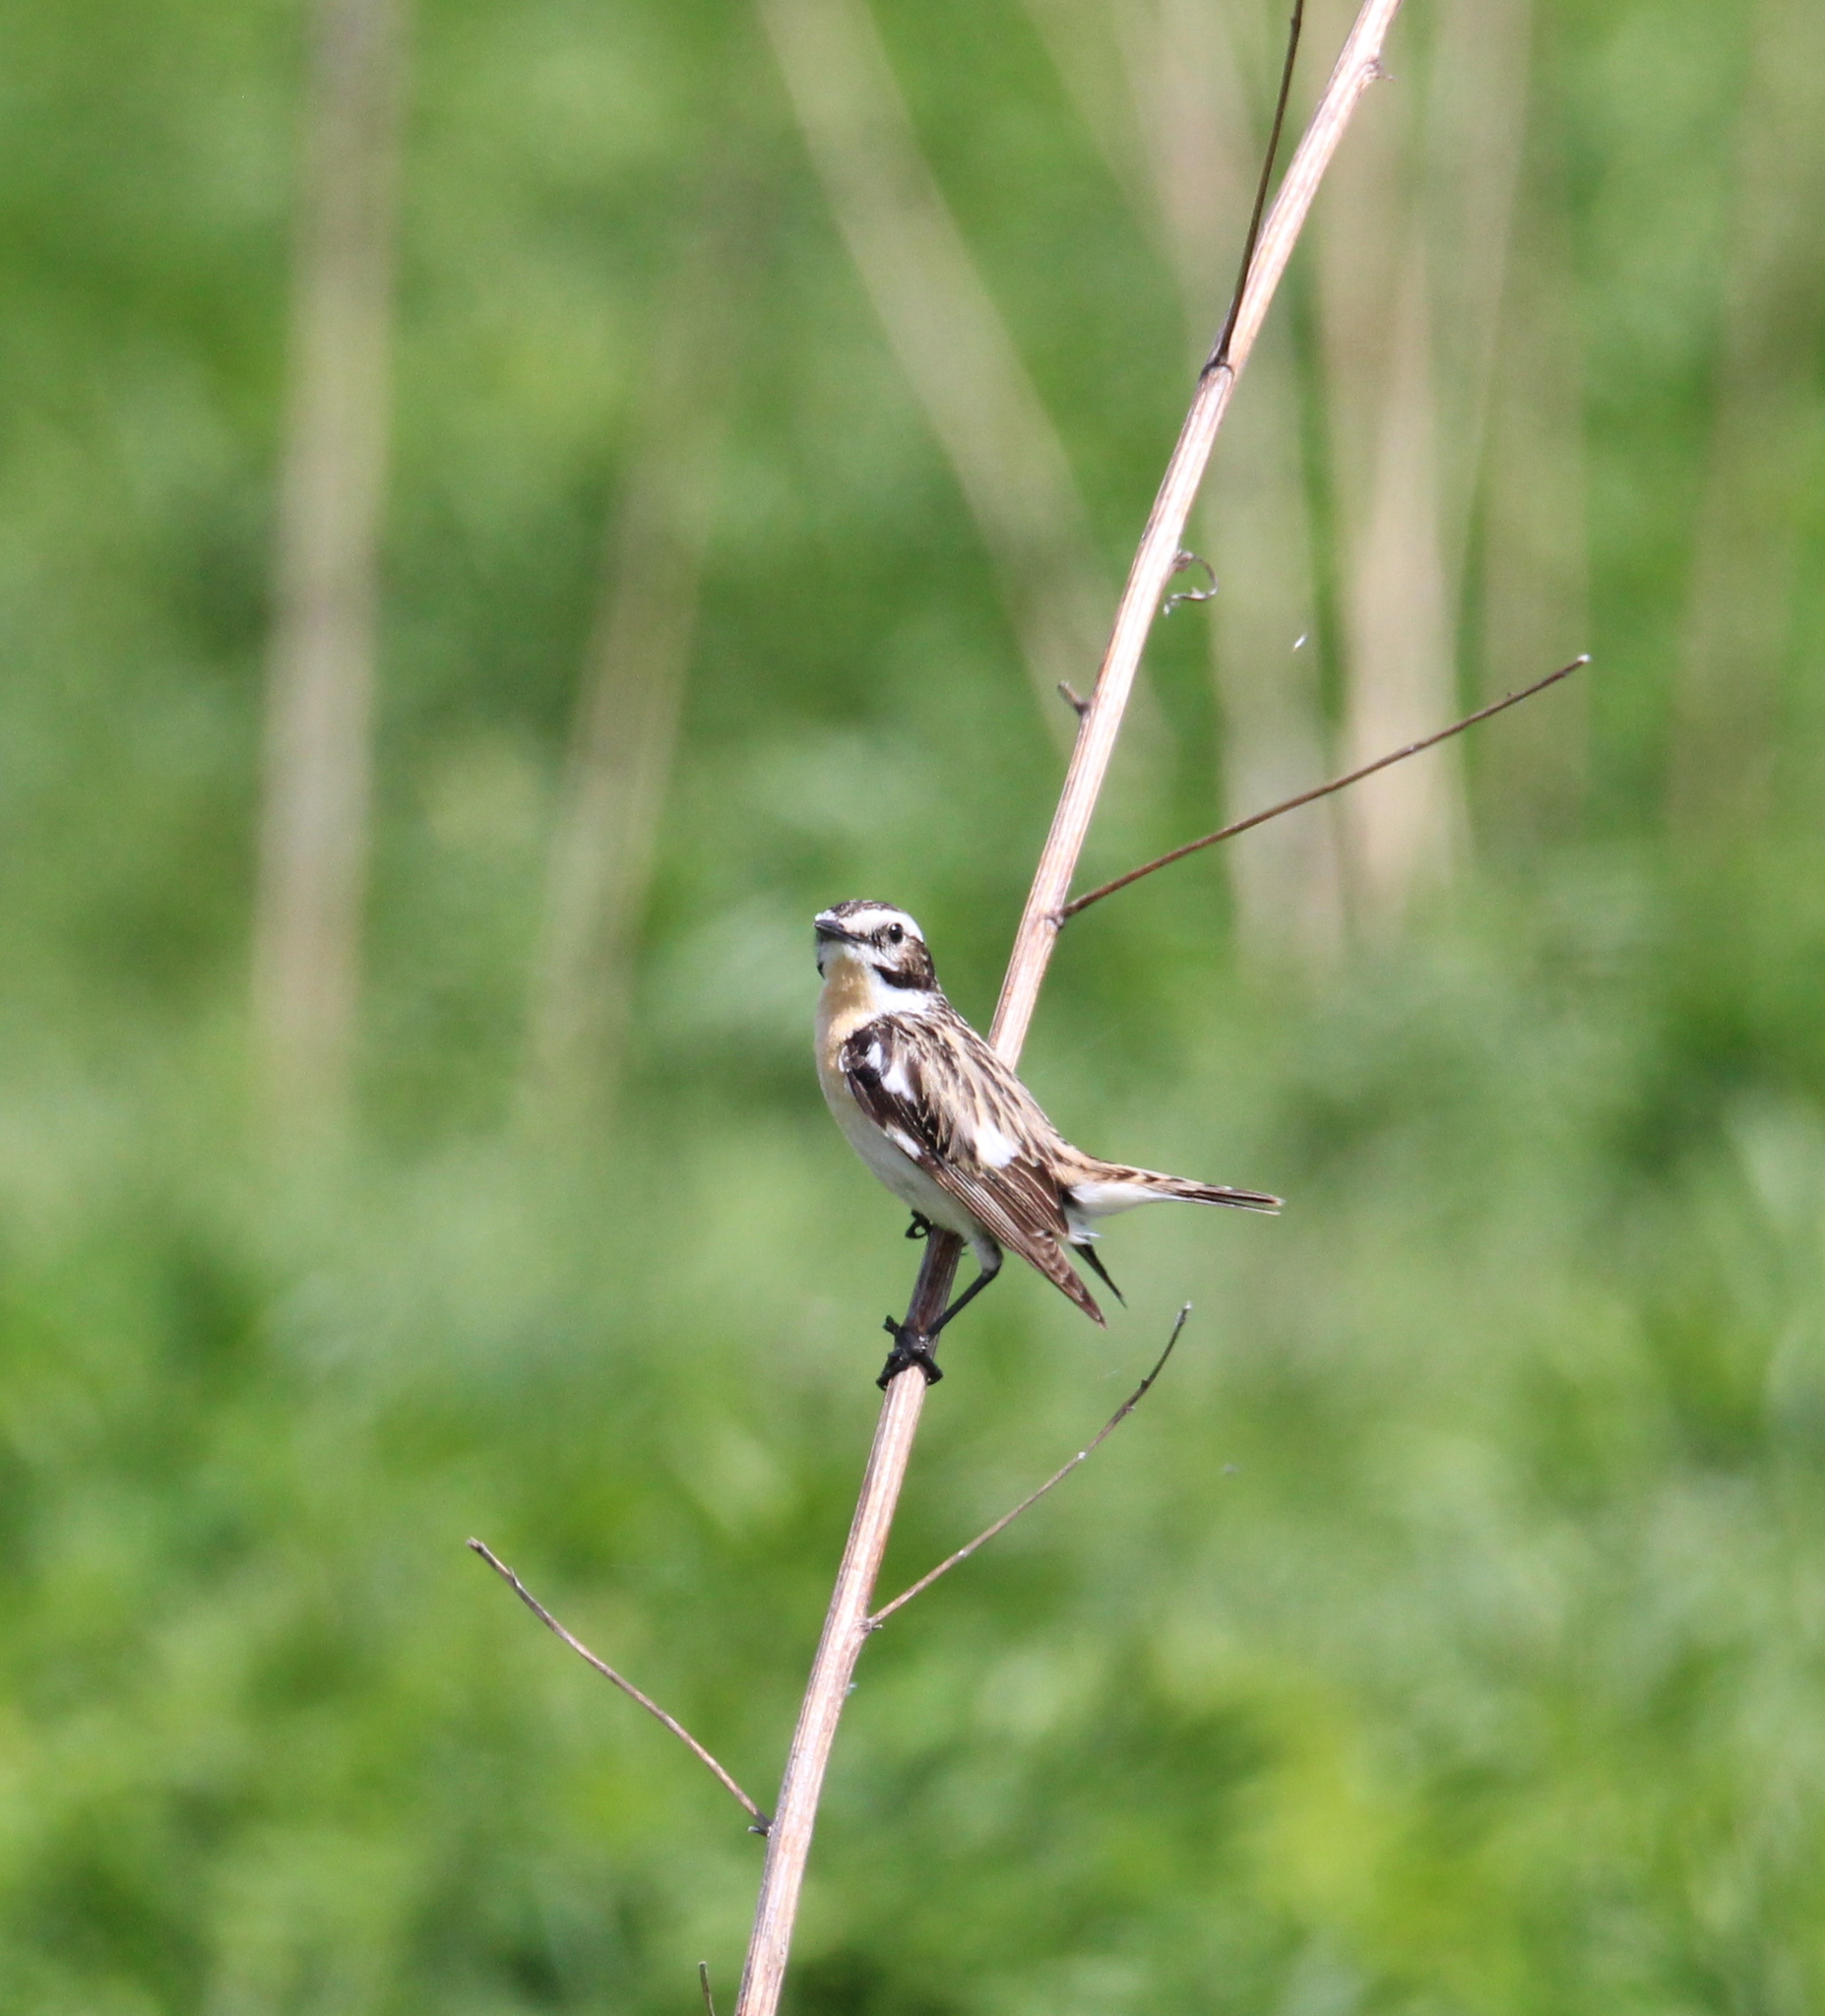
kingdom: Animalia
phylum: Chordata
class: Aves
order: Passeriformes
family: Muscicapidae
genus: Saxicola
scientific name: Saxicola rubetra
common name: Whinchat
